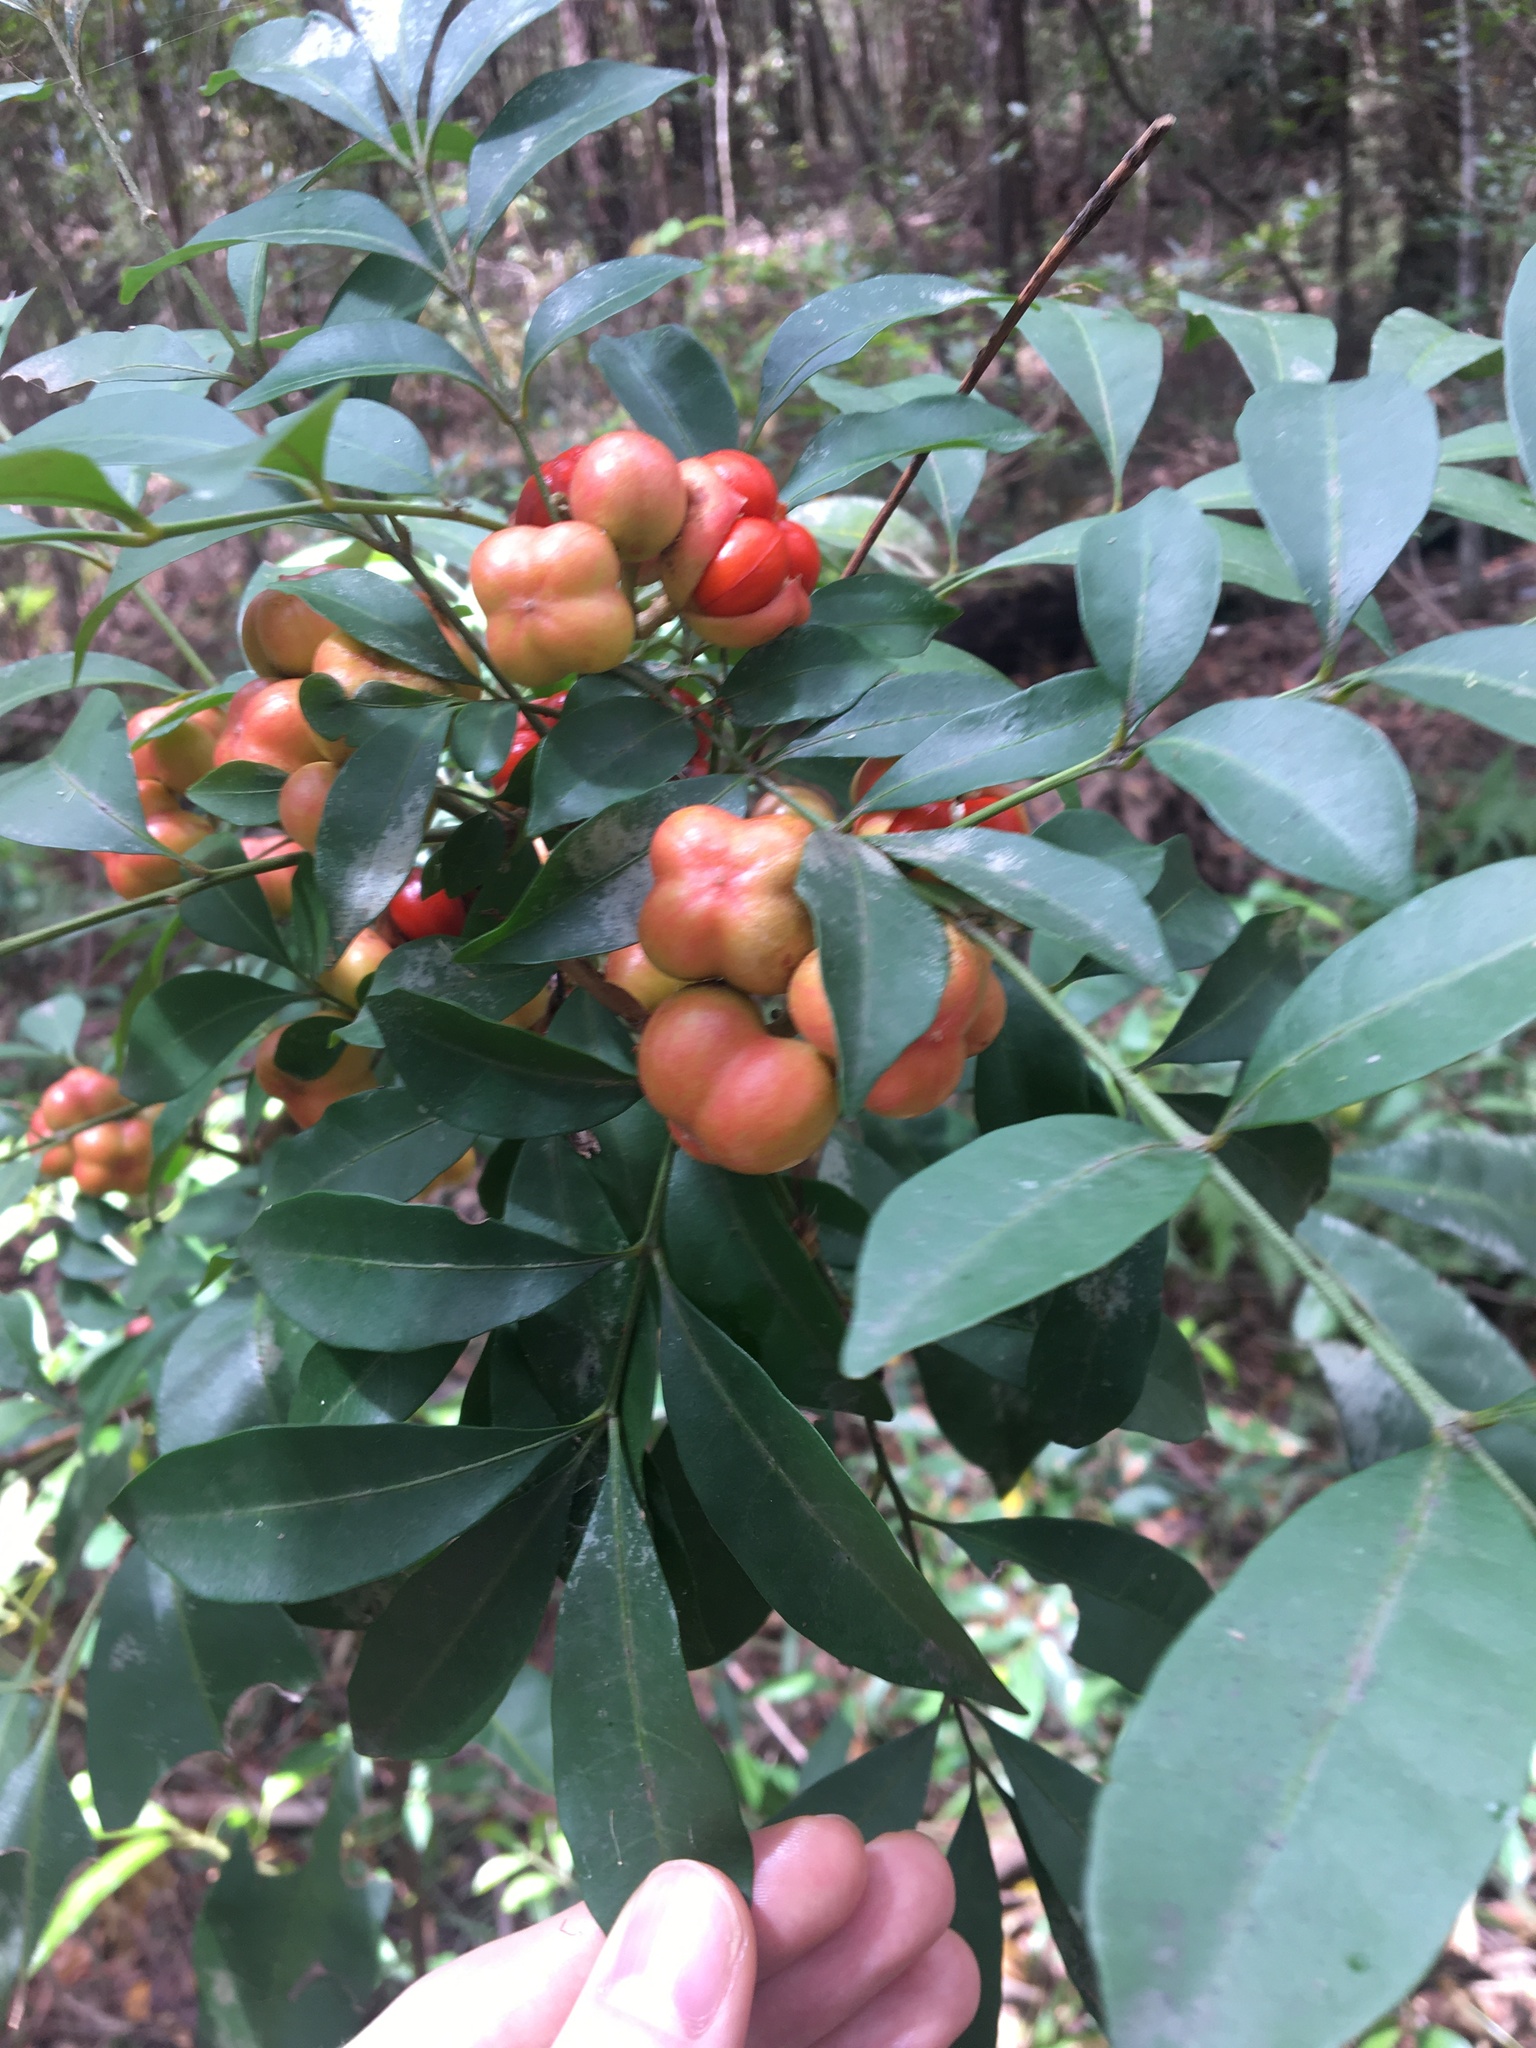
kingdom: Plantae
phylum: Tracheophyta
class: Magnoliopsida
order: Sapindales
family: Meliaceae
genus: Synoum
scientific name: Synoum glandulosum
